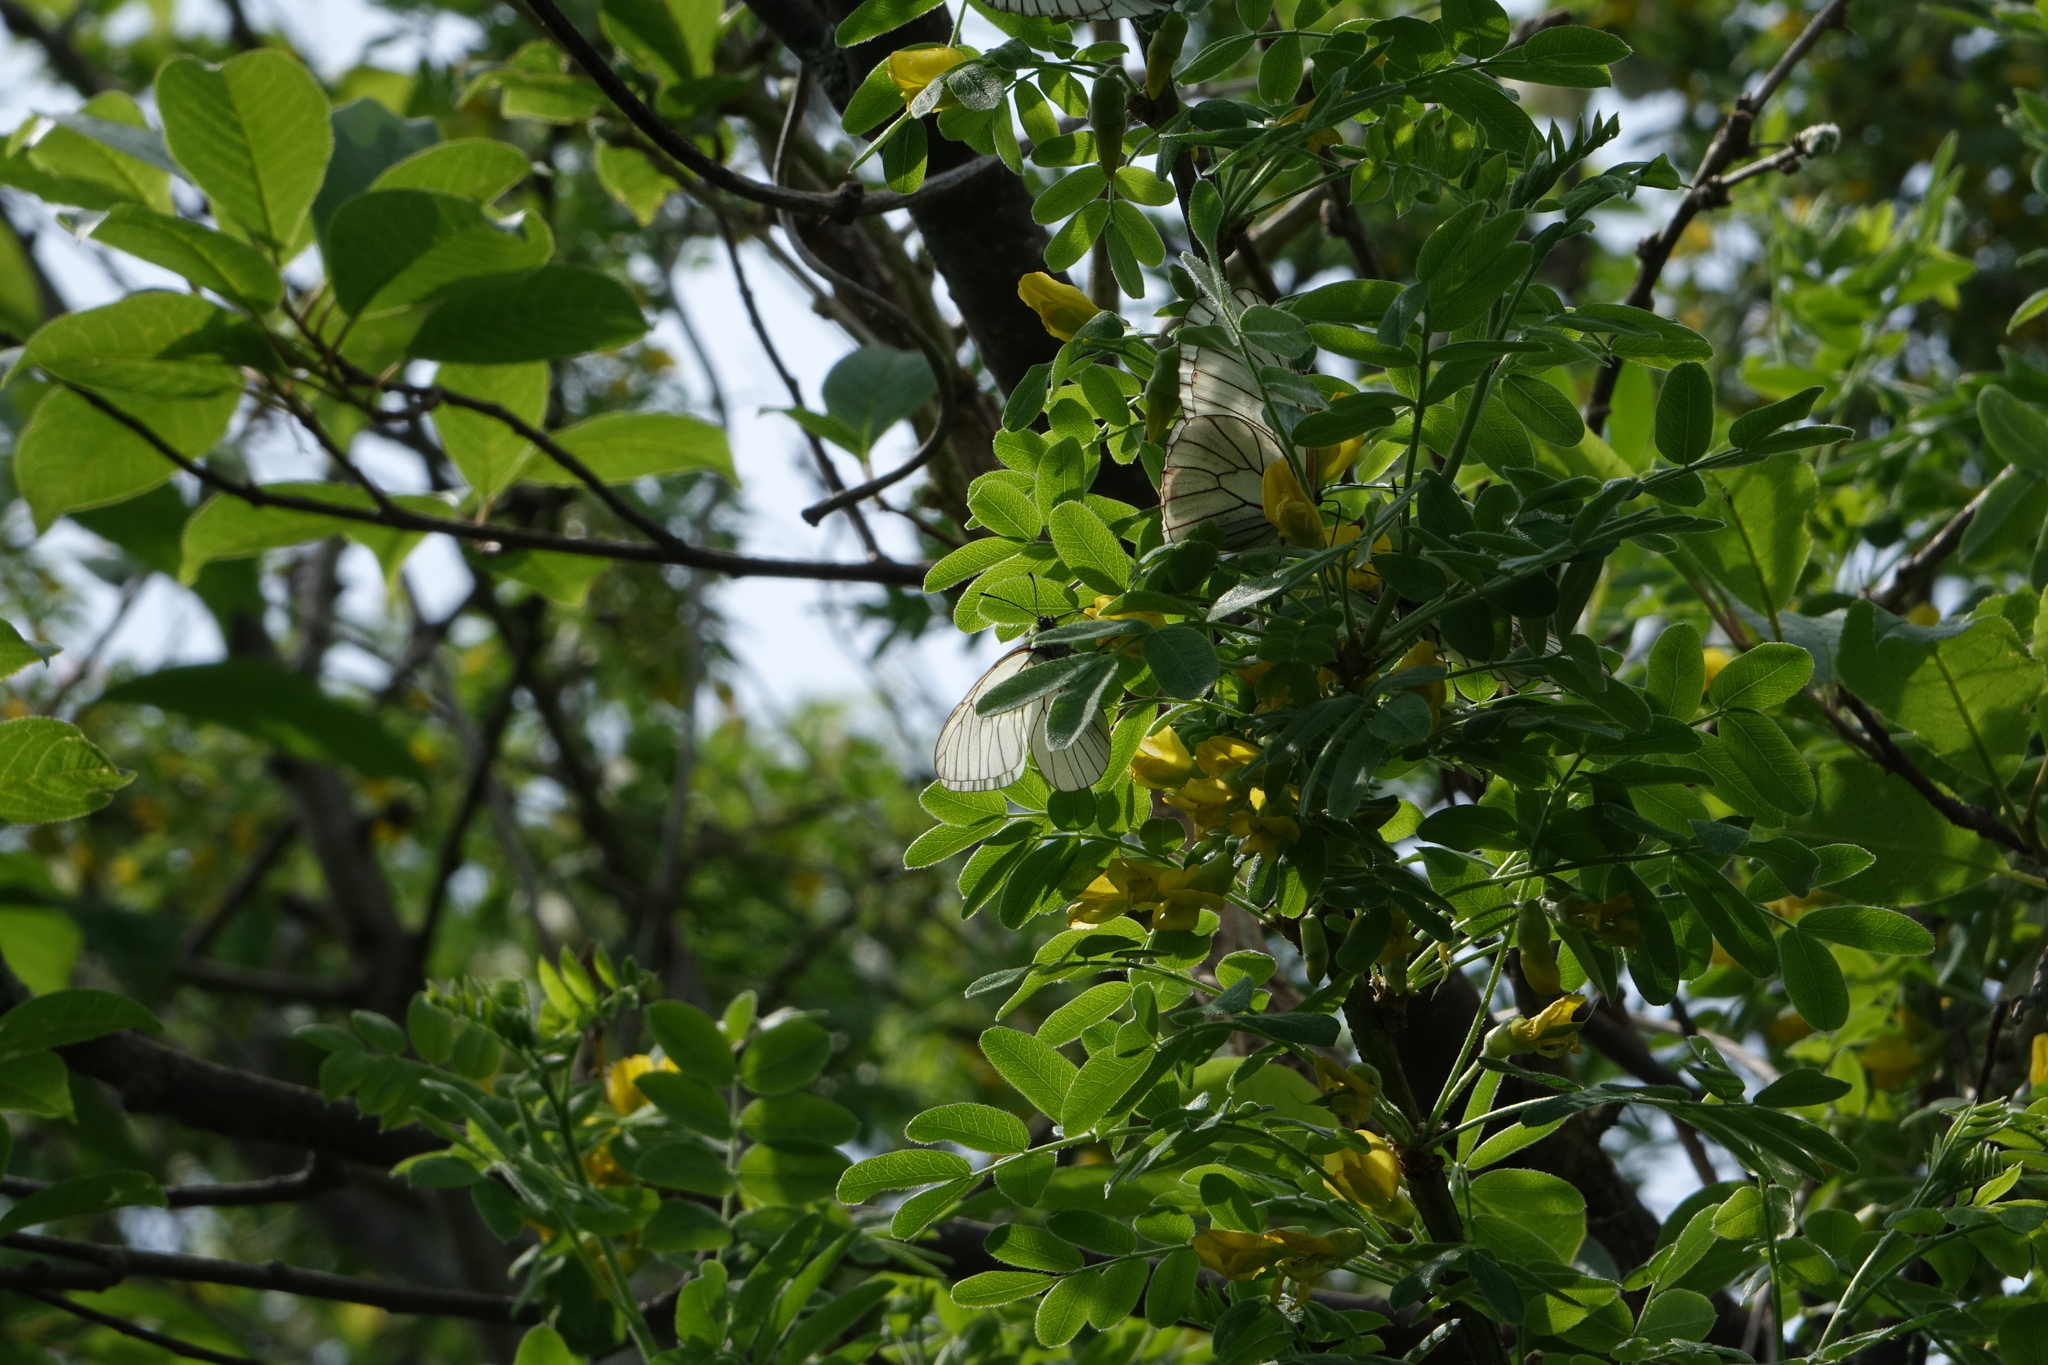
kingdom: Animalia
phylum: Arthropoda
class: Insecta
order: Lepidoptera
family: Pieridae
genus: Aporia
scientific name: Aporia crataegi
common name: Black-veined white
